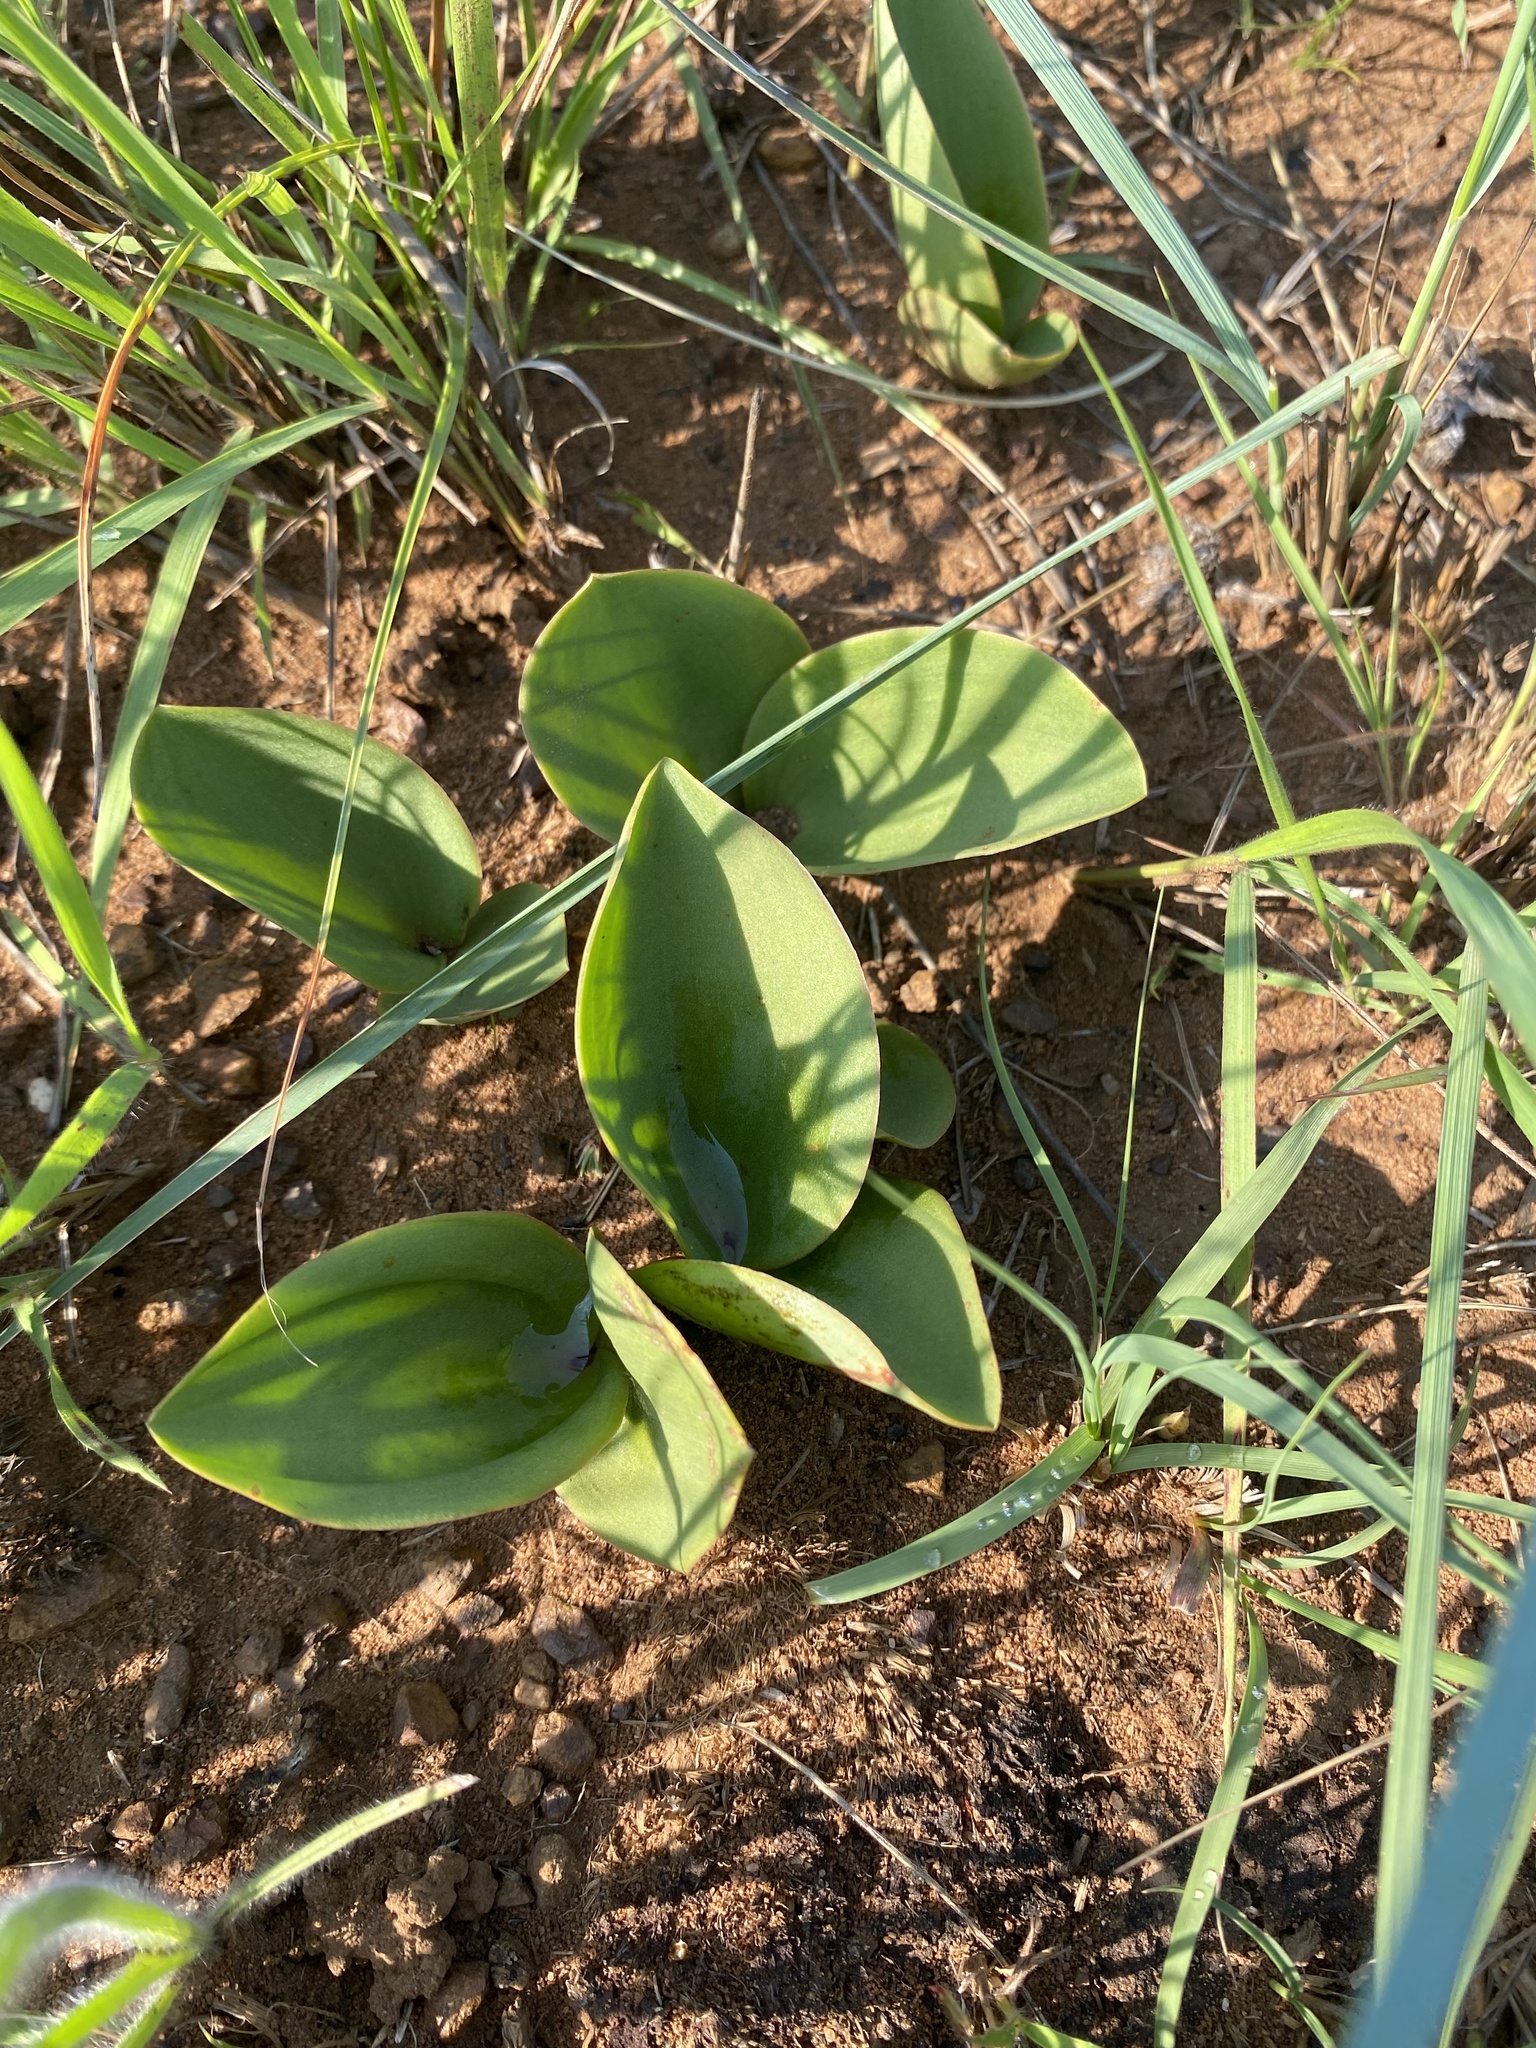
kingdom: Plantae
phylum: Tracheophyta
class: Liliopsida
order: Asparagales
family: Asparagaceae
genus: Eriospermum
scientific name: Eriospermum mackenii
